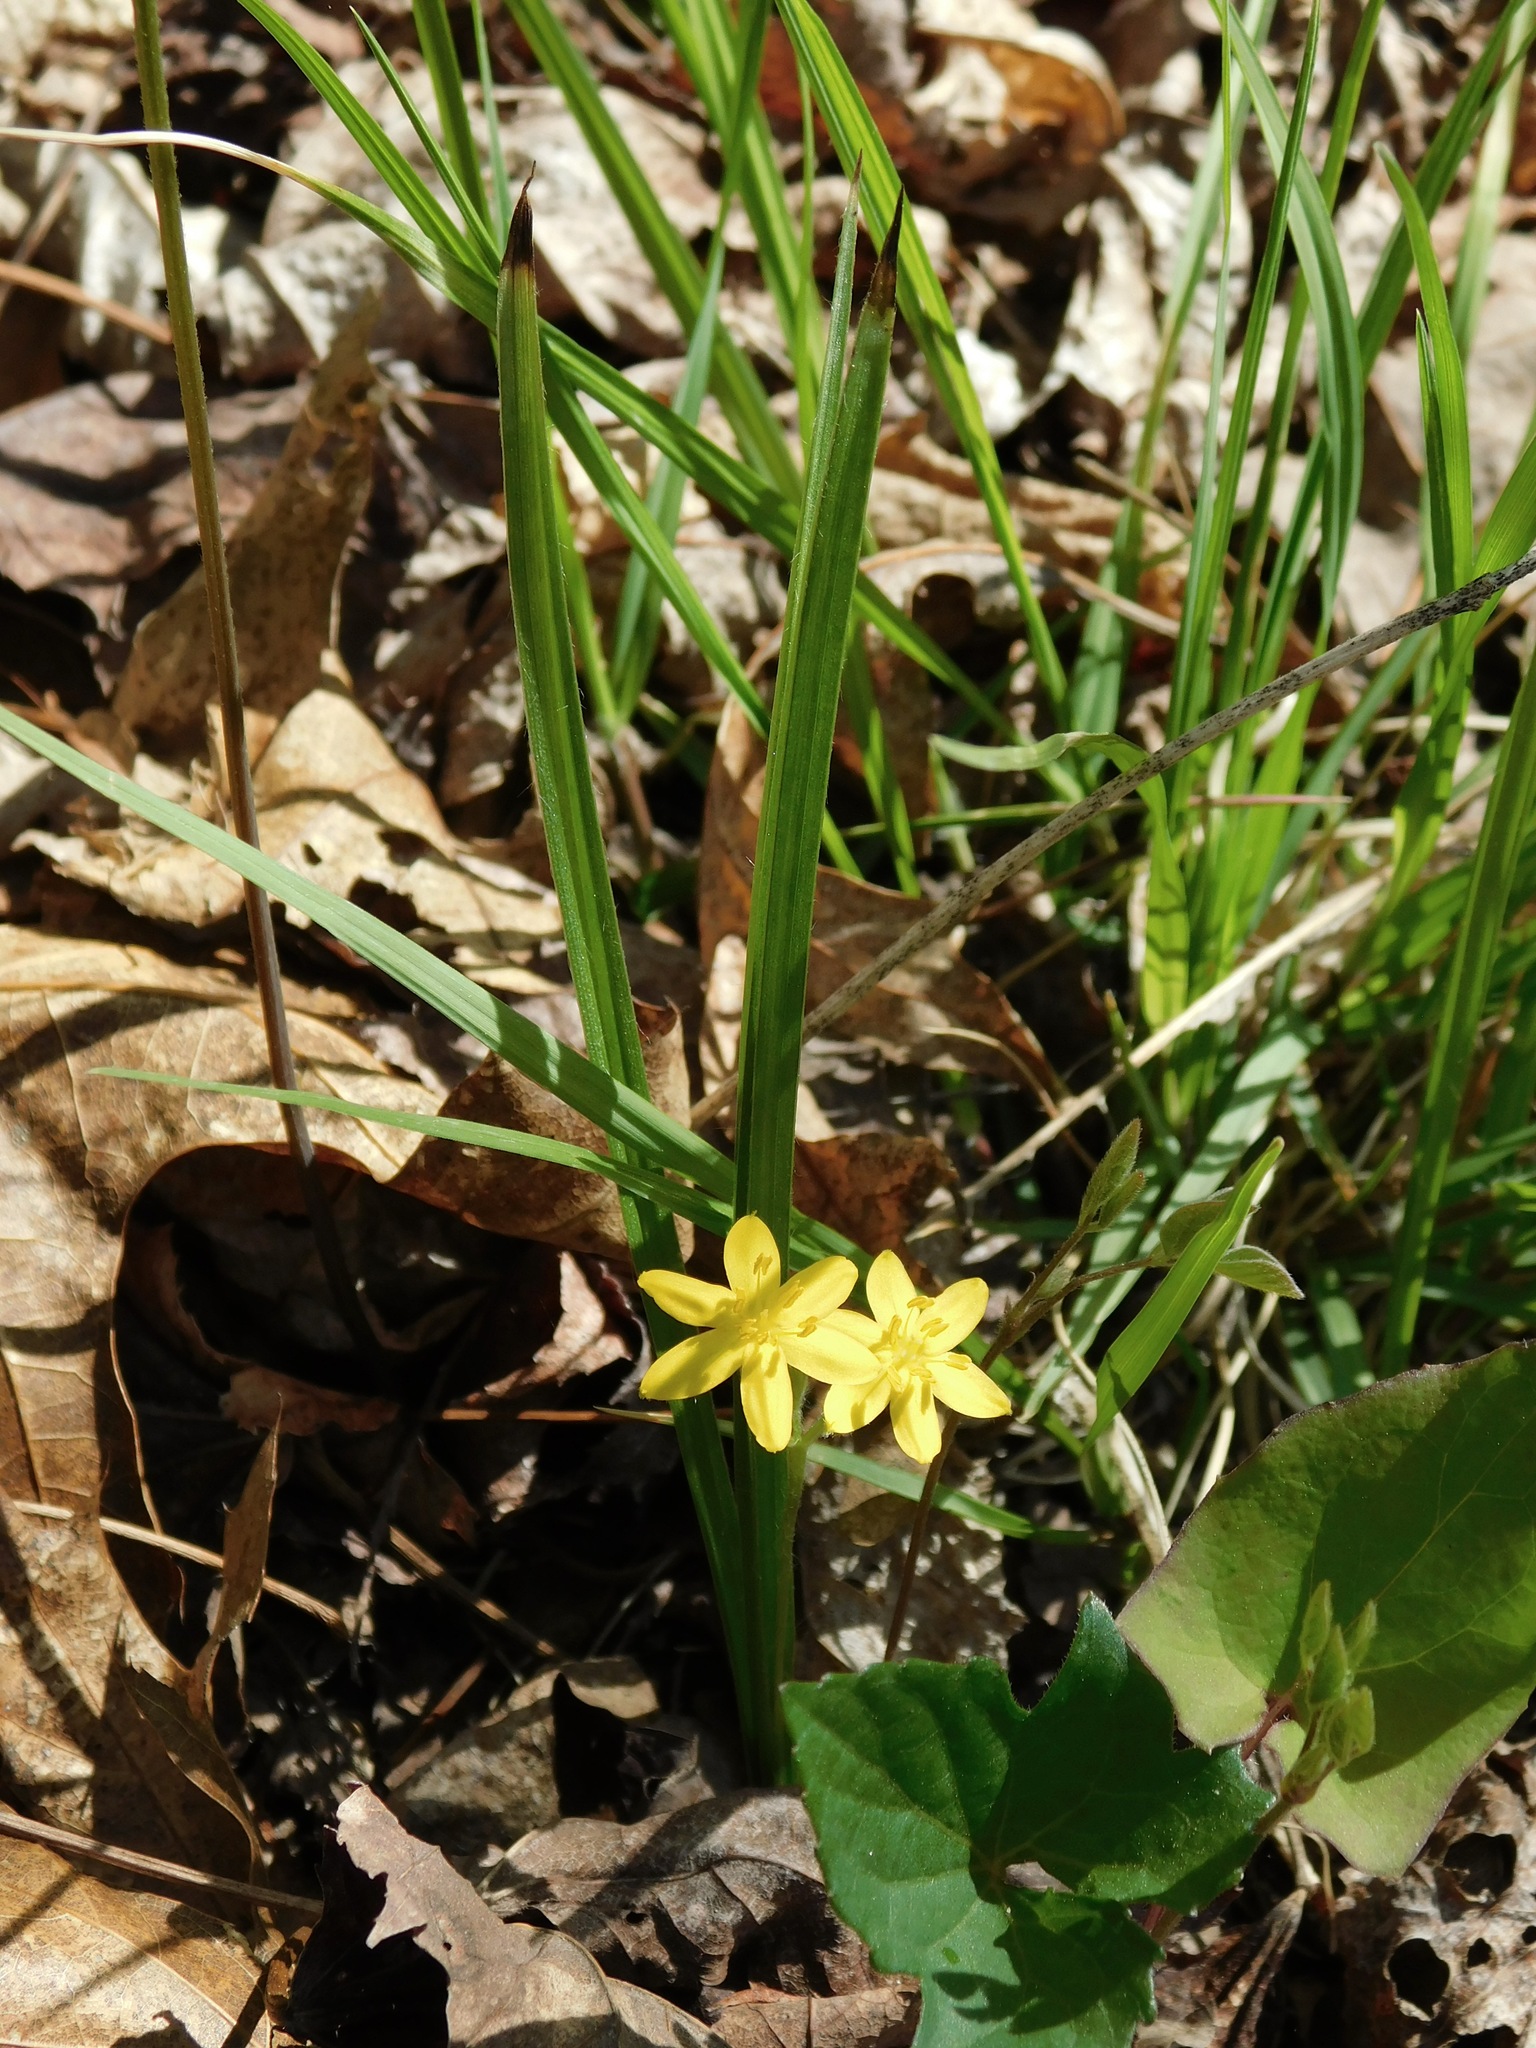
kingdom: Plantae
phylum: Tracheophyta
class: Liliopsida
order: Asparagales
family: Hypoxidaceae
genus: Hypoxis
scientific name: Hypoxis hirsuta
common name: Common goldstar
